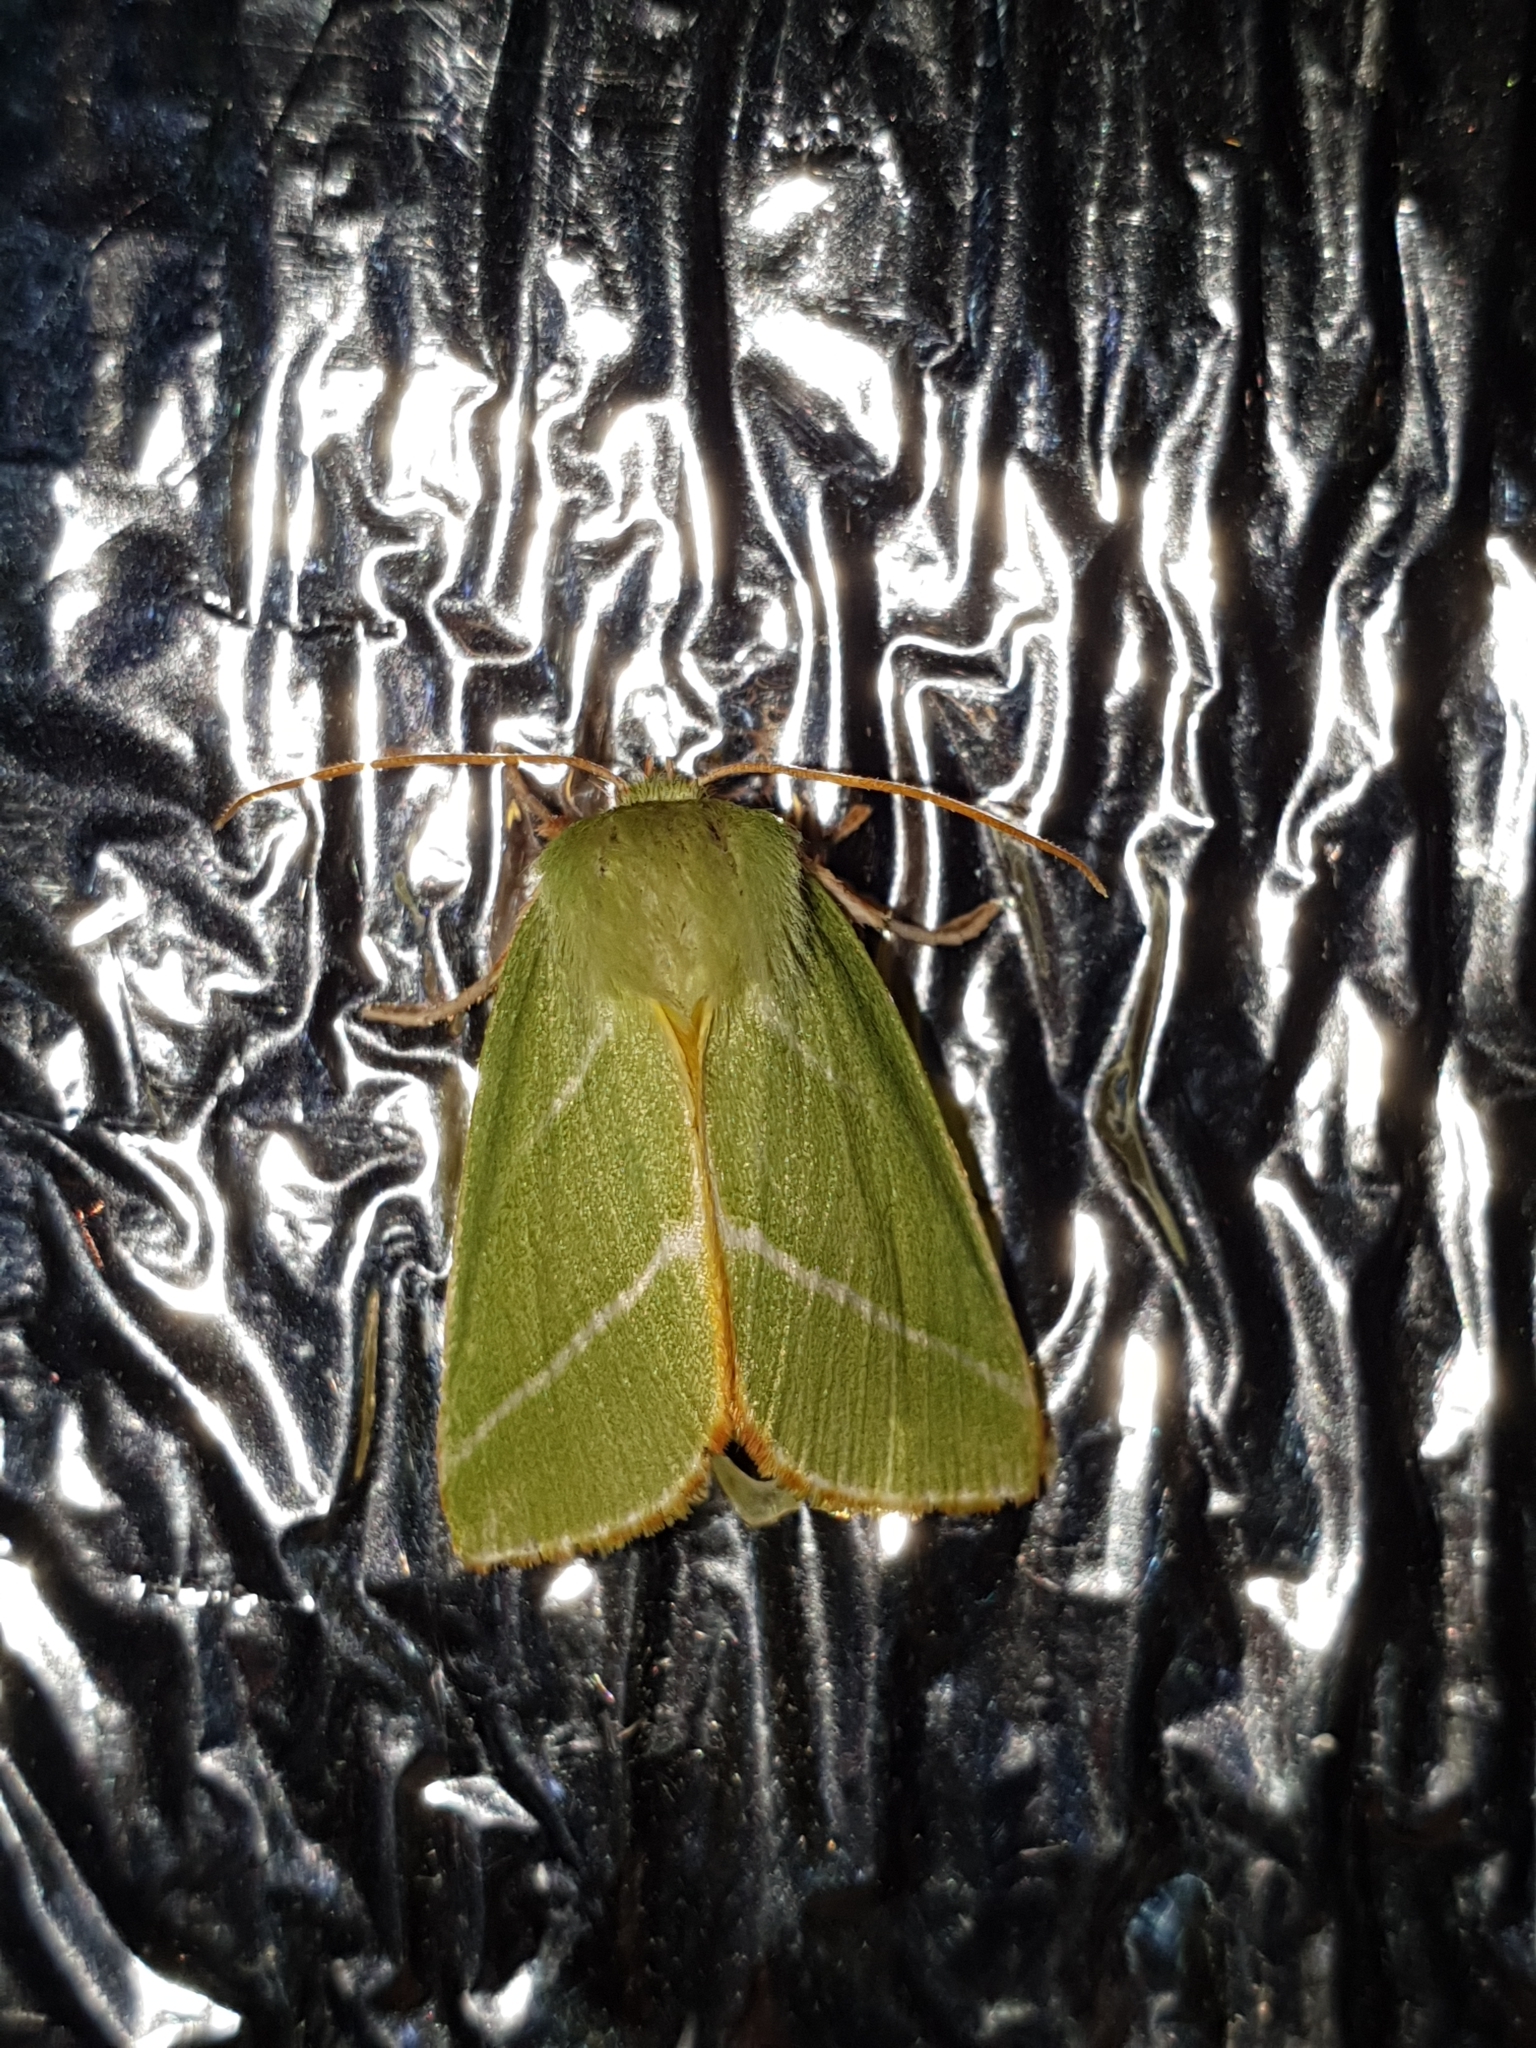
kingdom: Animalia
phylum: Arthropoda
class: Insecta
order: Lepidoptera
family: Nolidae
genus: Pseudoips
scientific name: Pseudoips prasinana
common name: Green silver-lines
